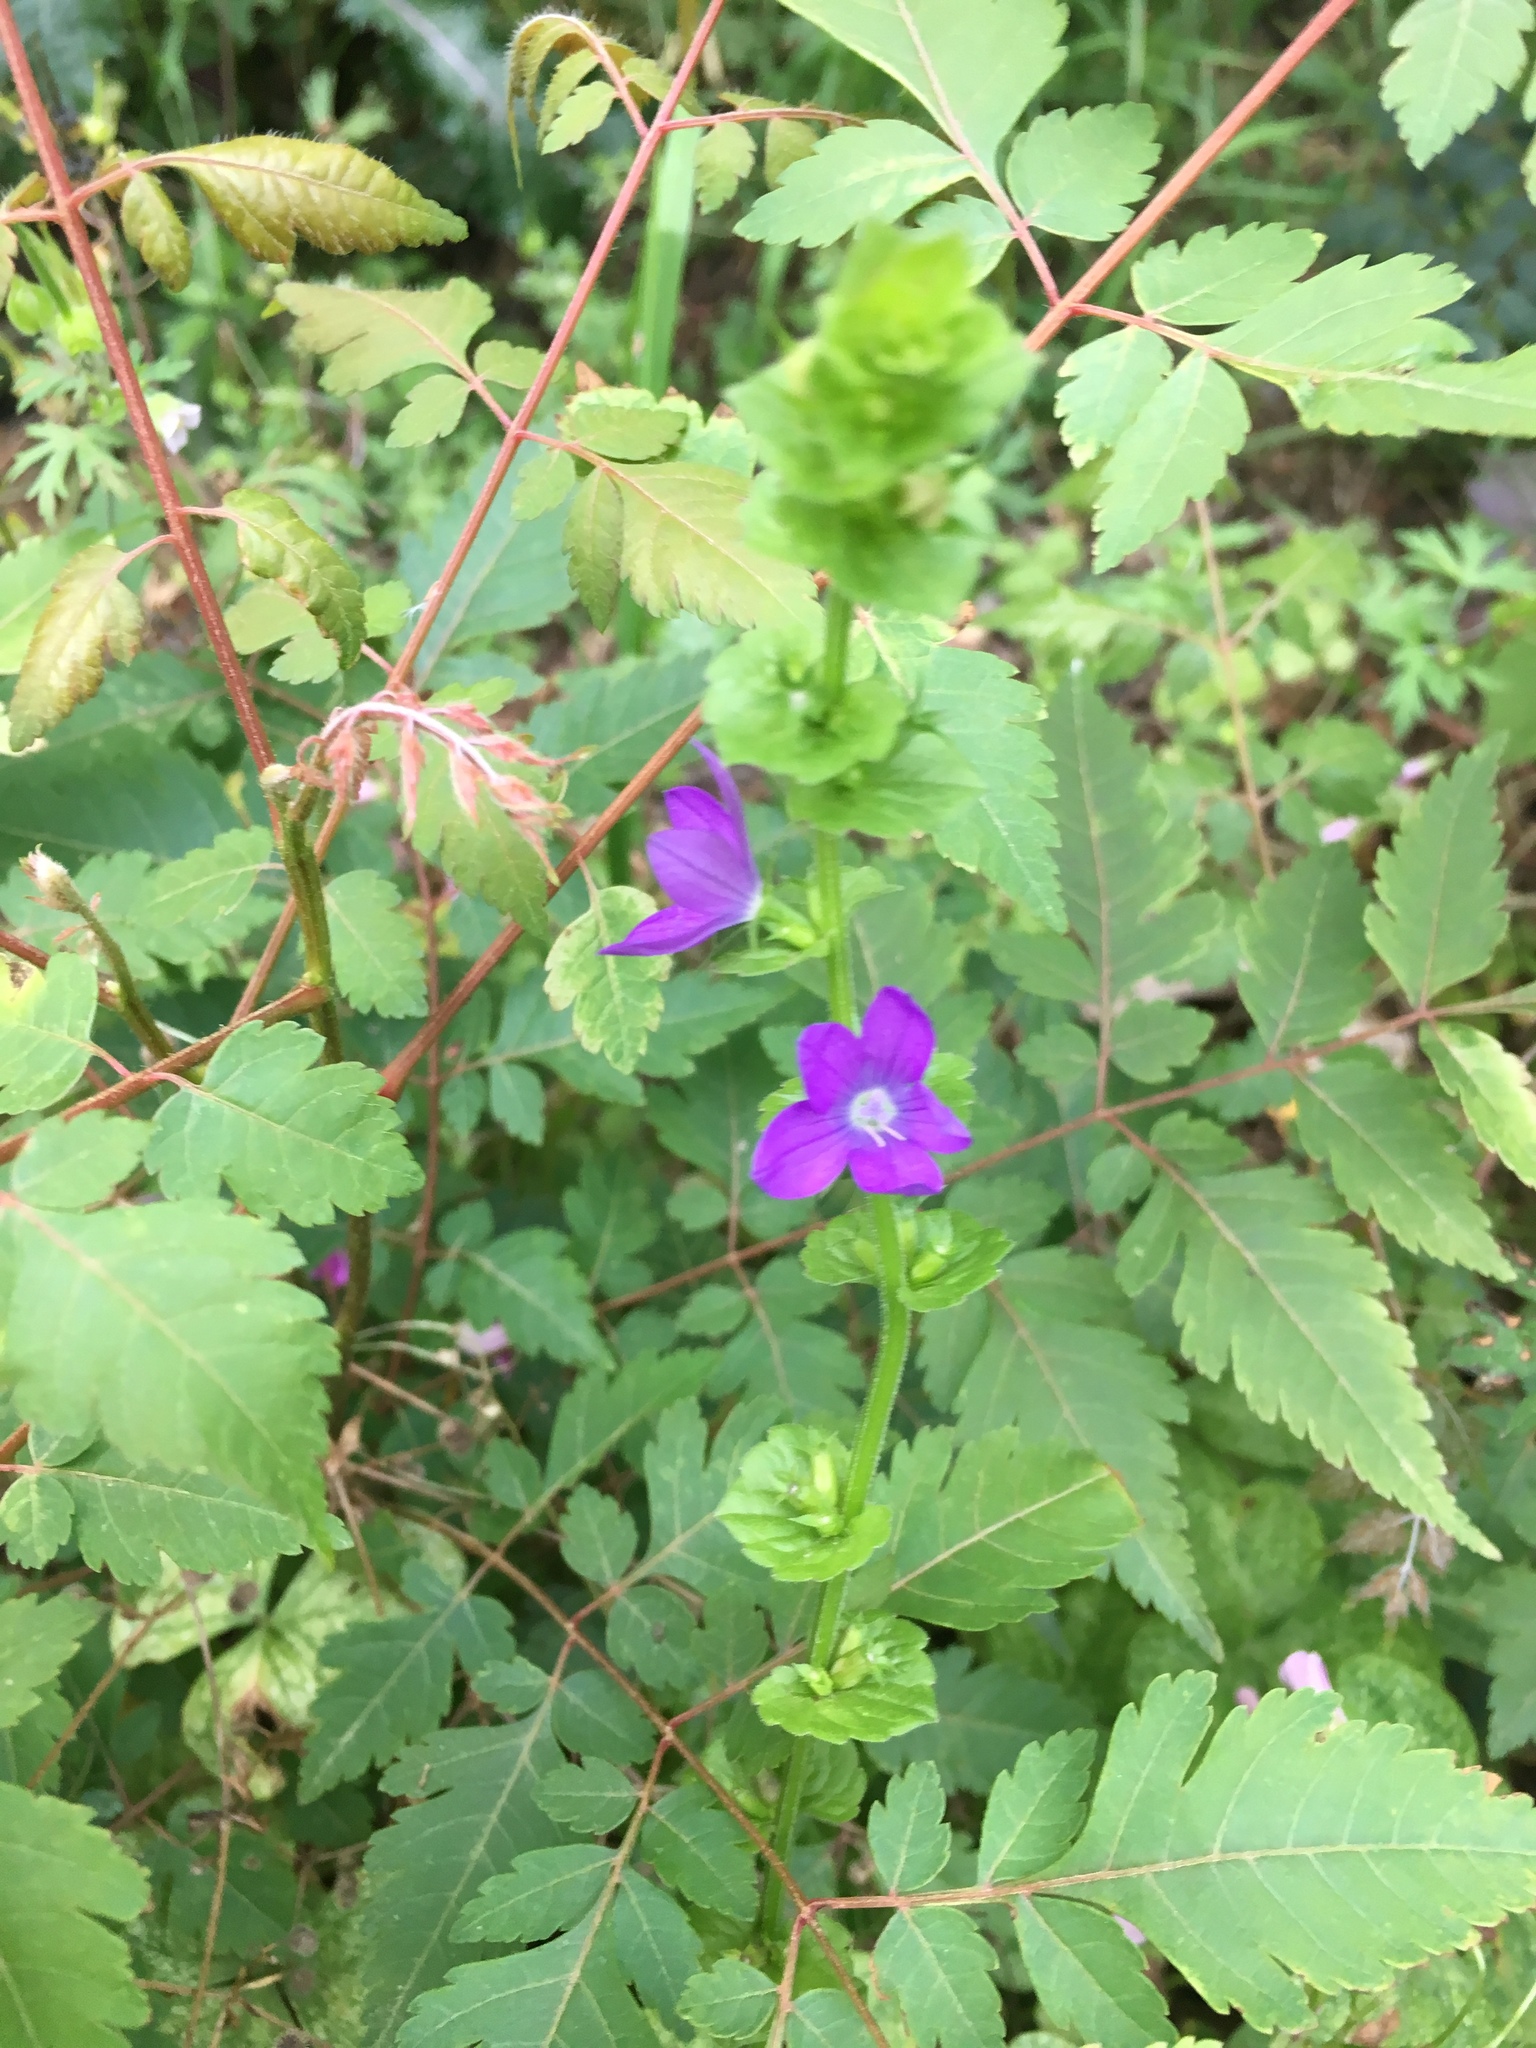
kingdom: Plantae
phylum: Tracheophyta
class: Magnoliopsida
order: Asterales
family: Campanulaceae
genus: Triodanis
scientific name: Triodanis perfoliata
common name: Clasping venus' looking-glass
